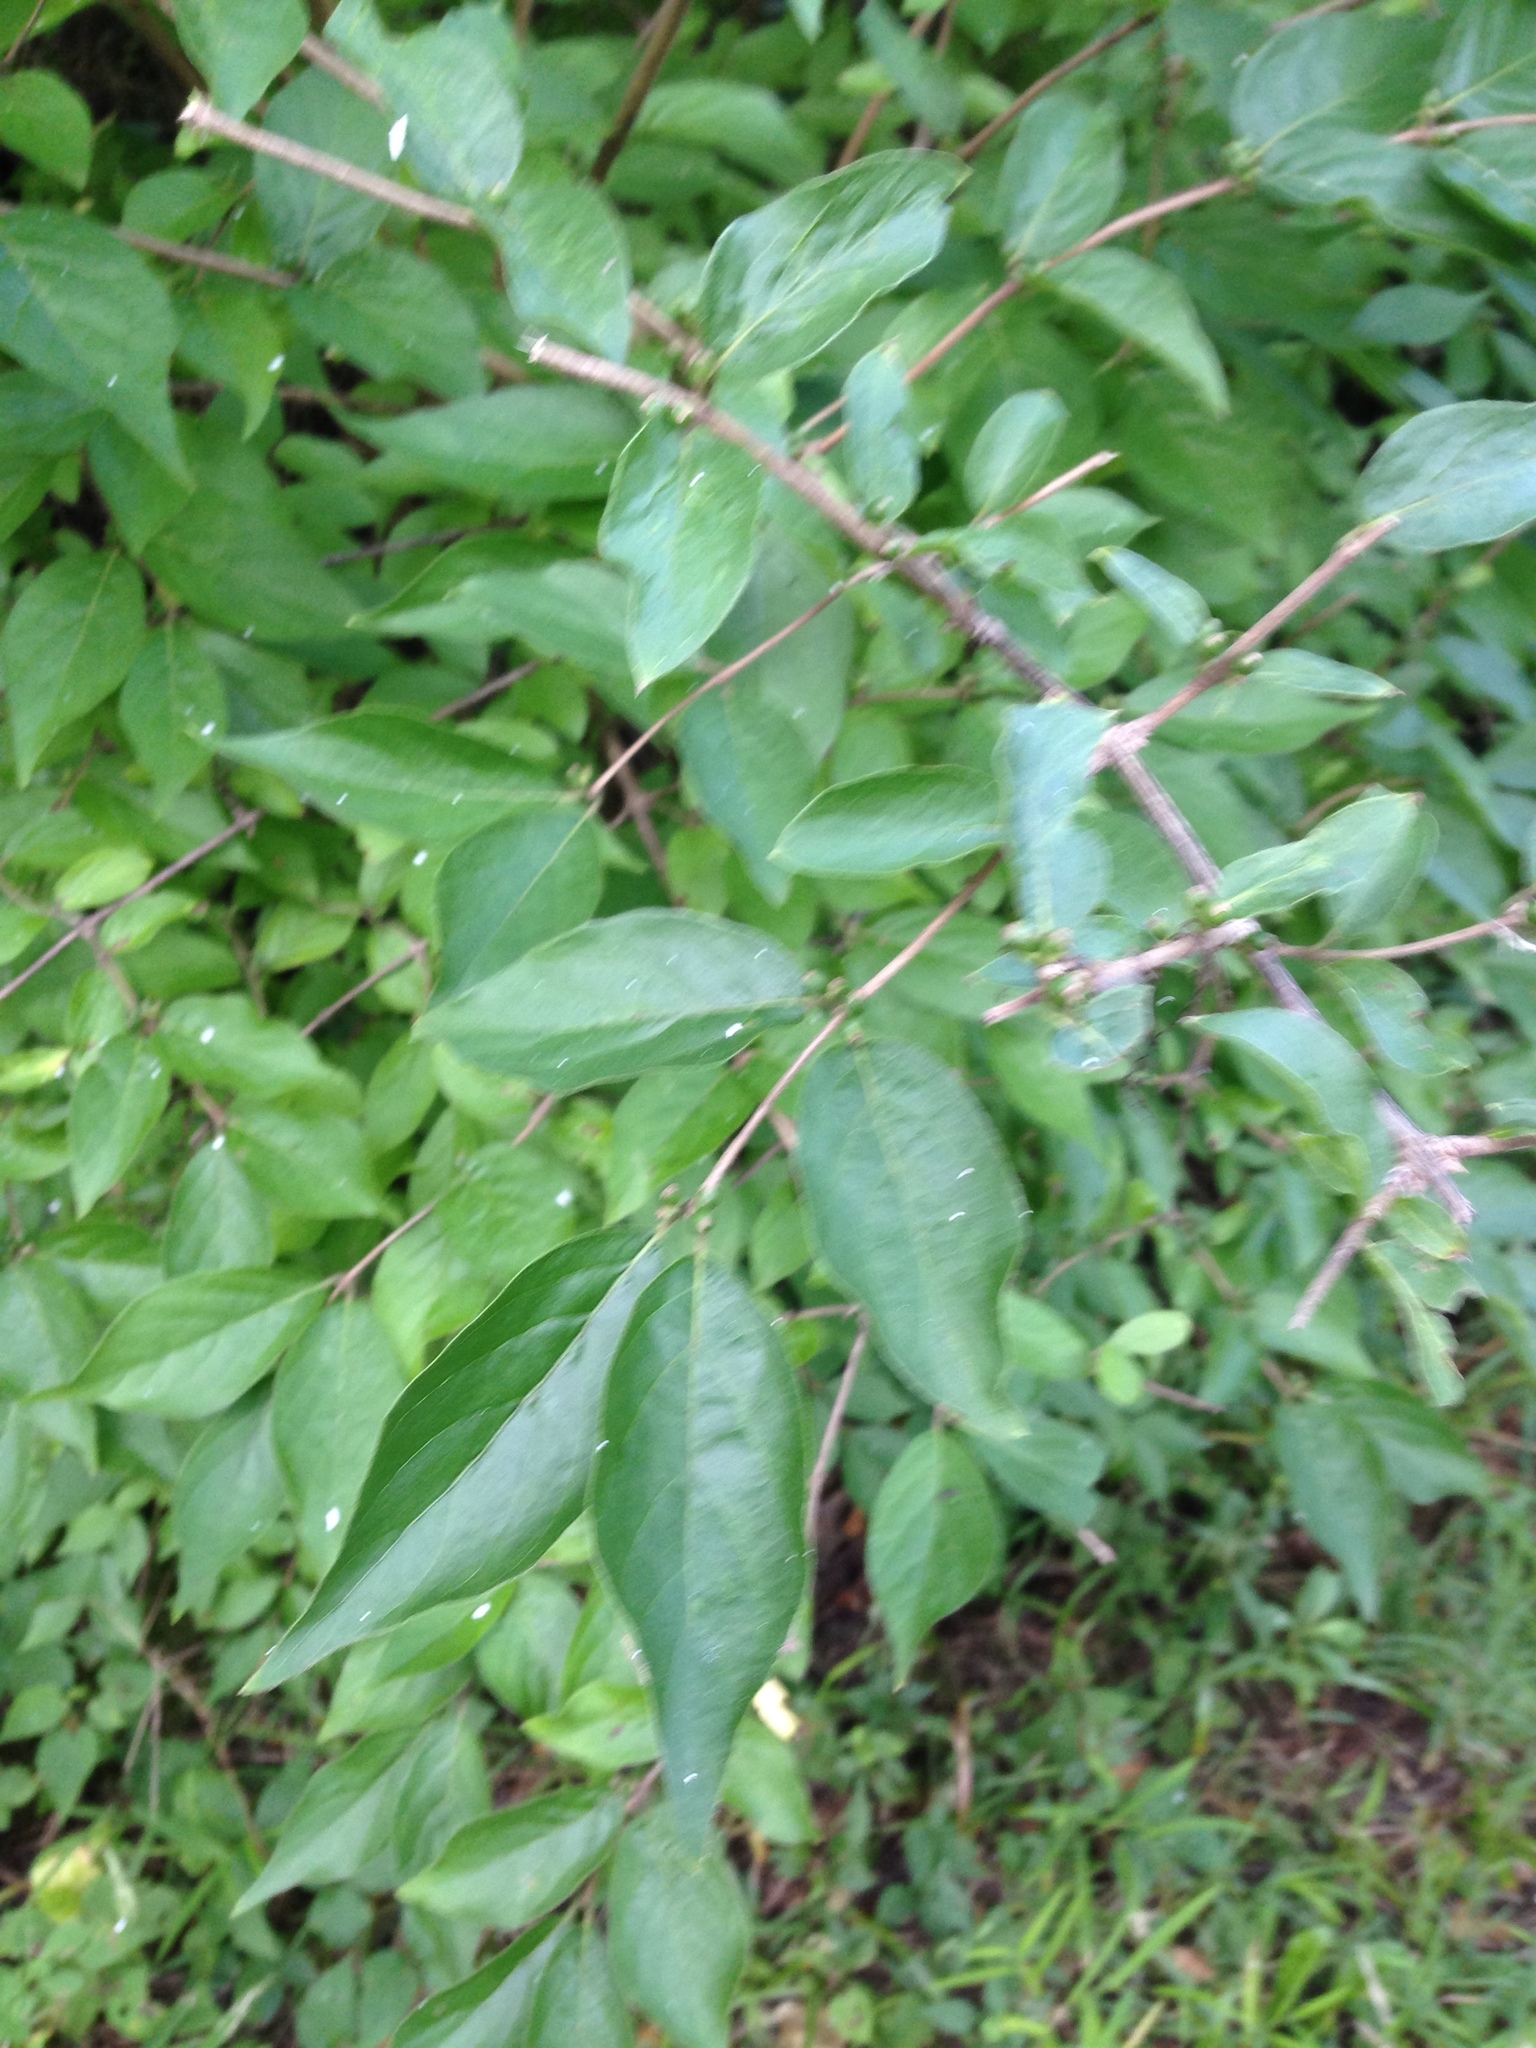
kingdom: Plantae
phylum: Tracheophyta
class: Magnoliopsida
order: Dipsacales
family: Caprifoliaceae
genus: Lonicera
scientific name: Lonicera maackii
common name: Amur honeysuckle
